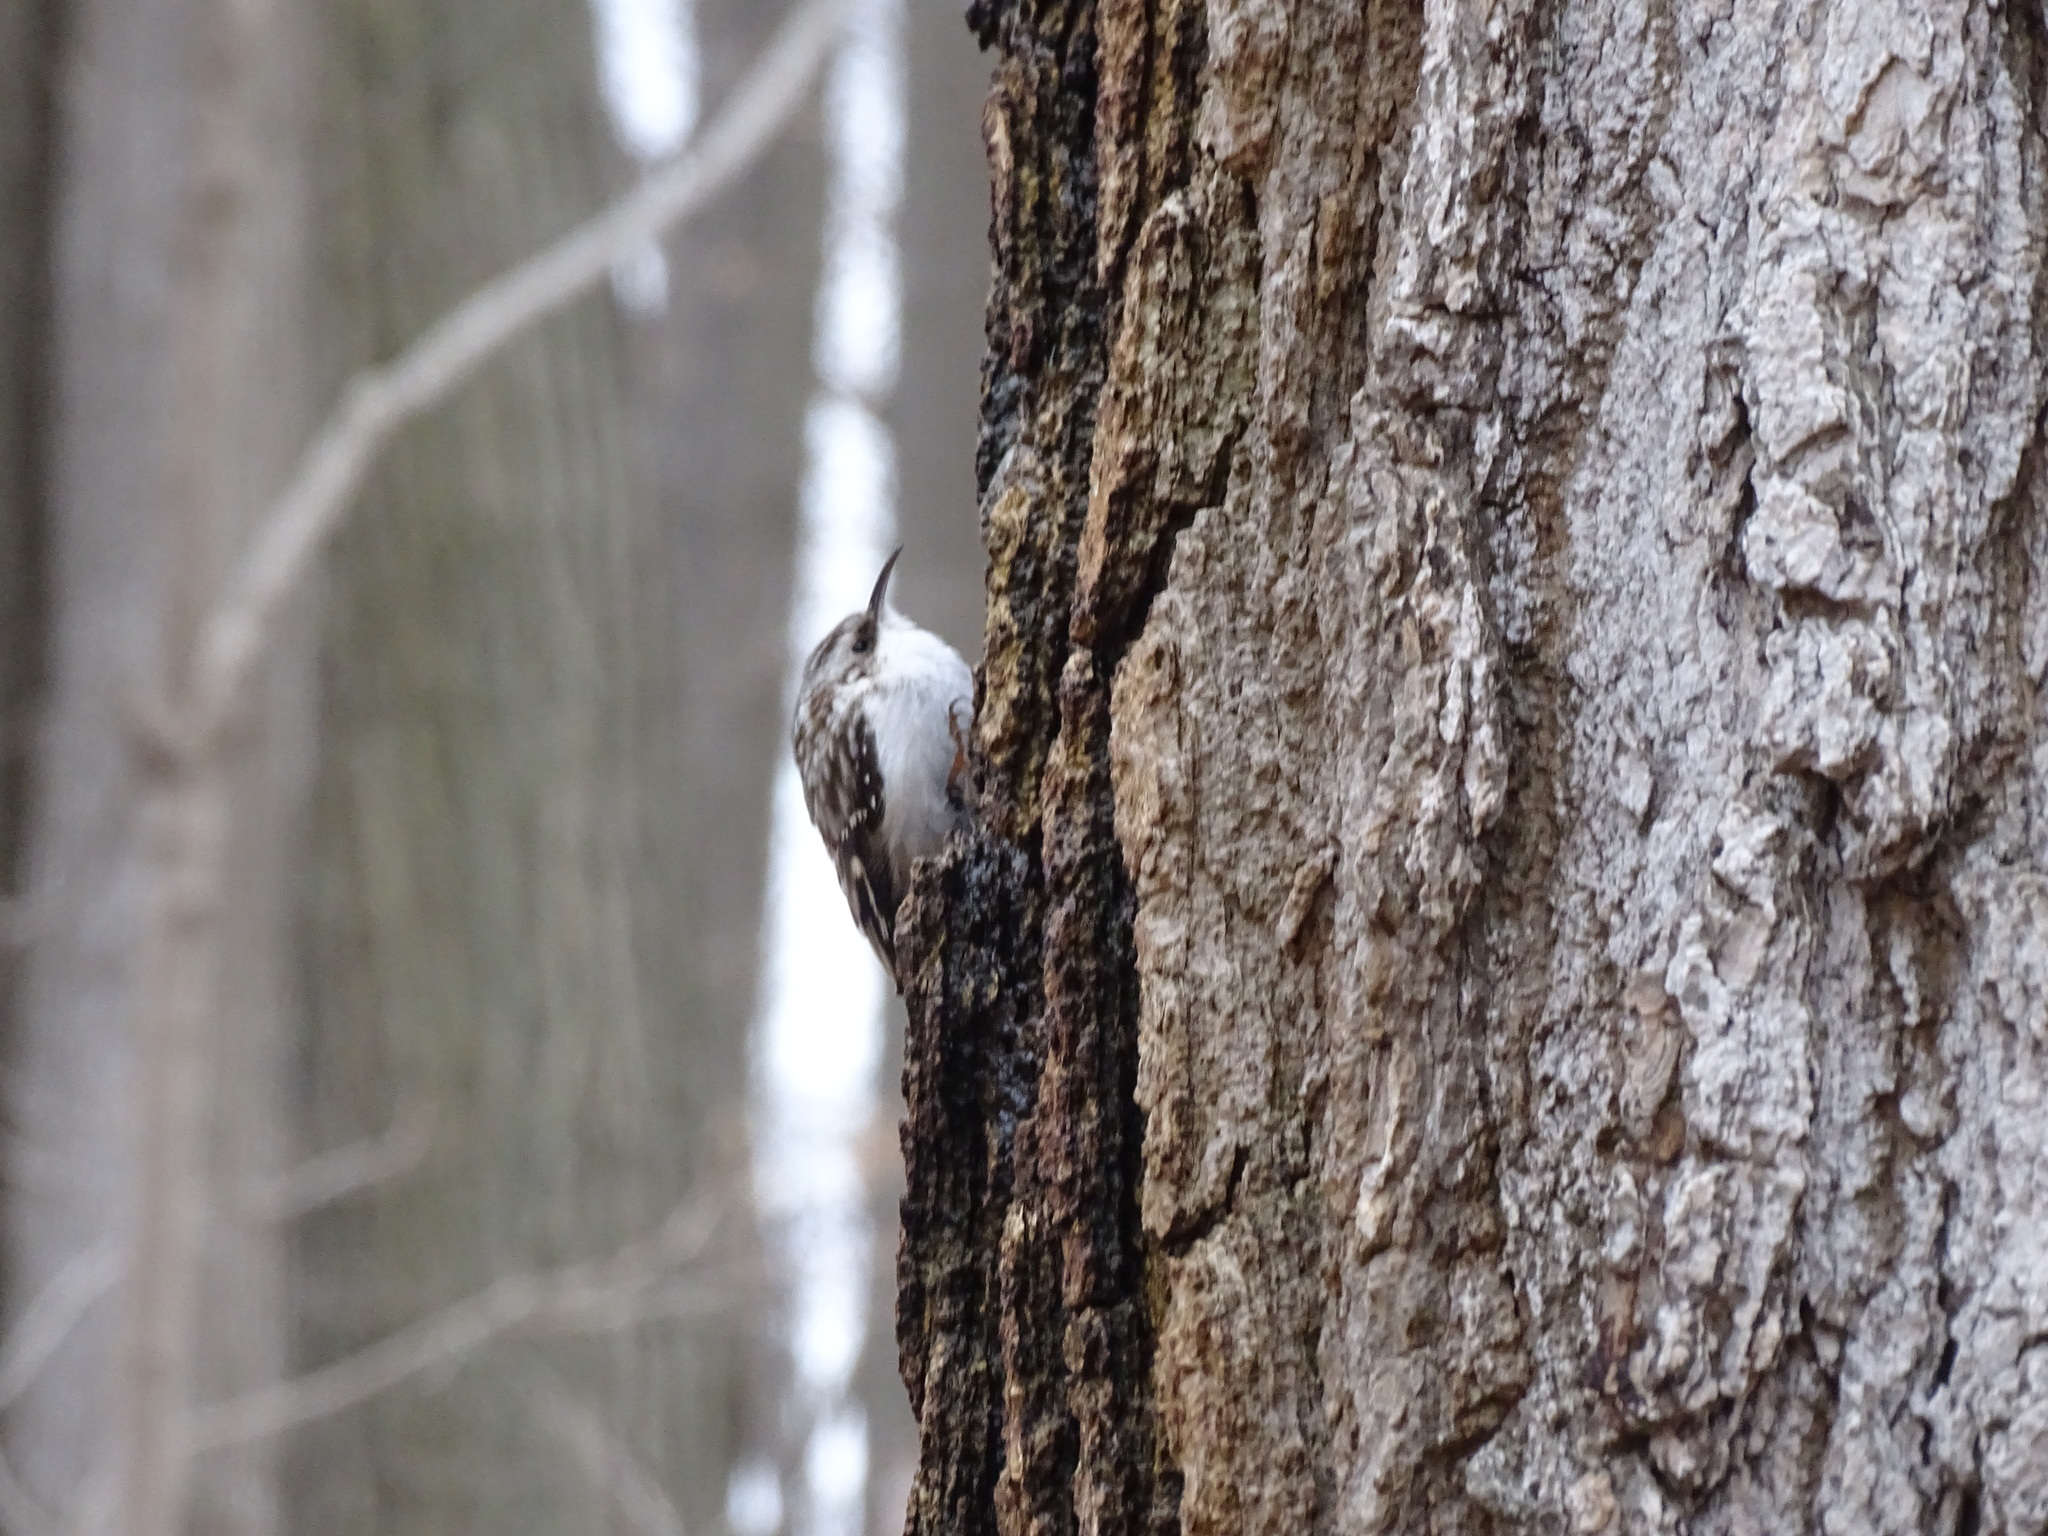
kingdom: Animalia
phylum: Chordata
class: Aves
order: Passeriformes
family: Certhiidae
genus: Certhia
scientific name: Certhia americana
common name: Brown creeper
